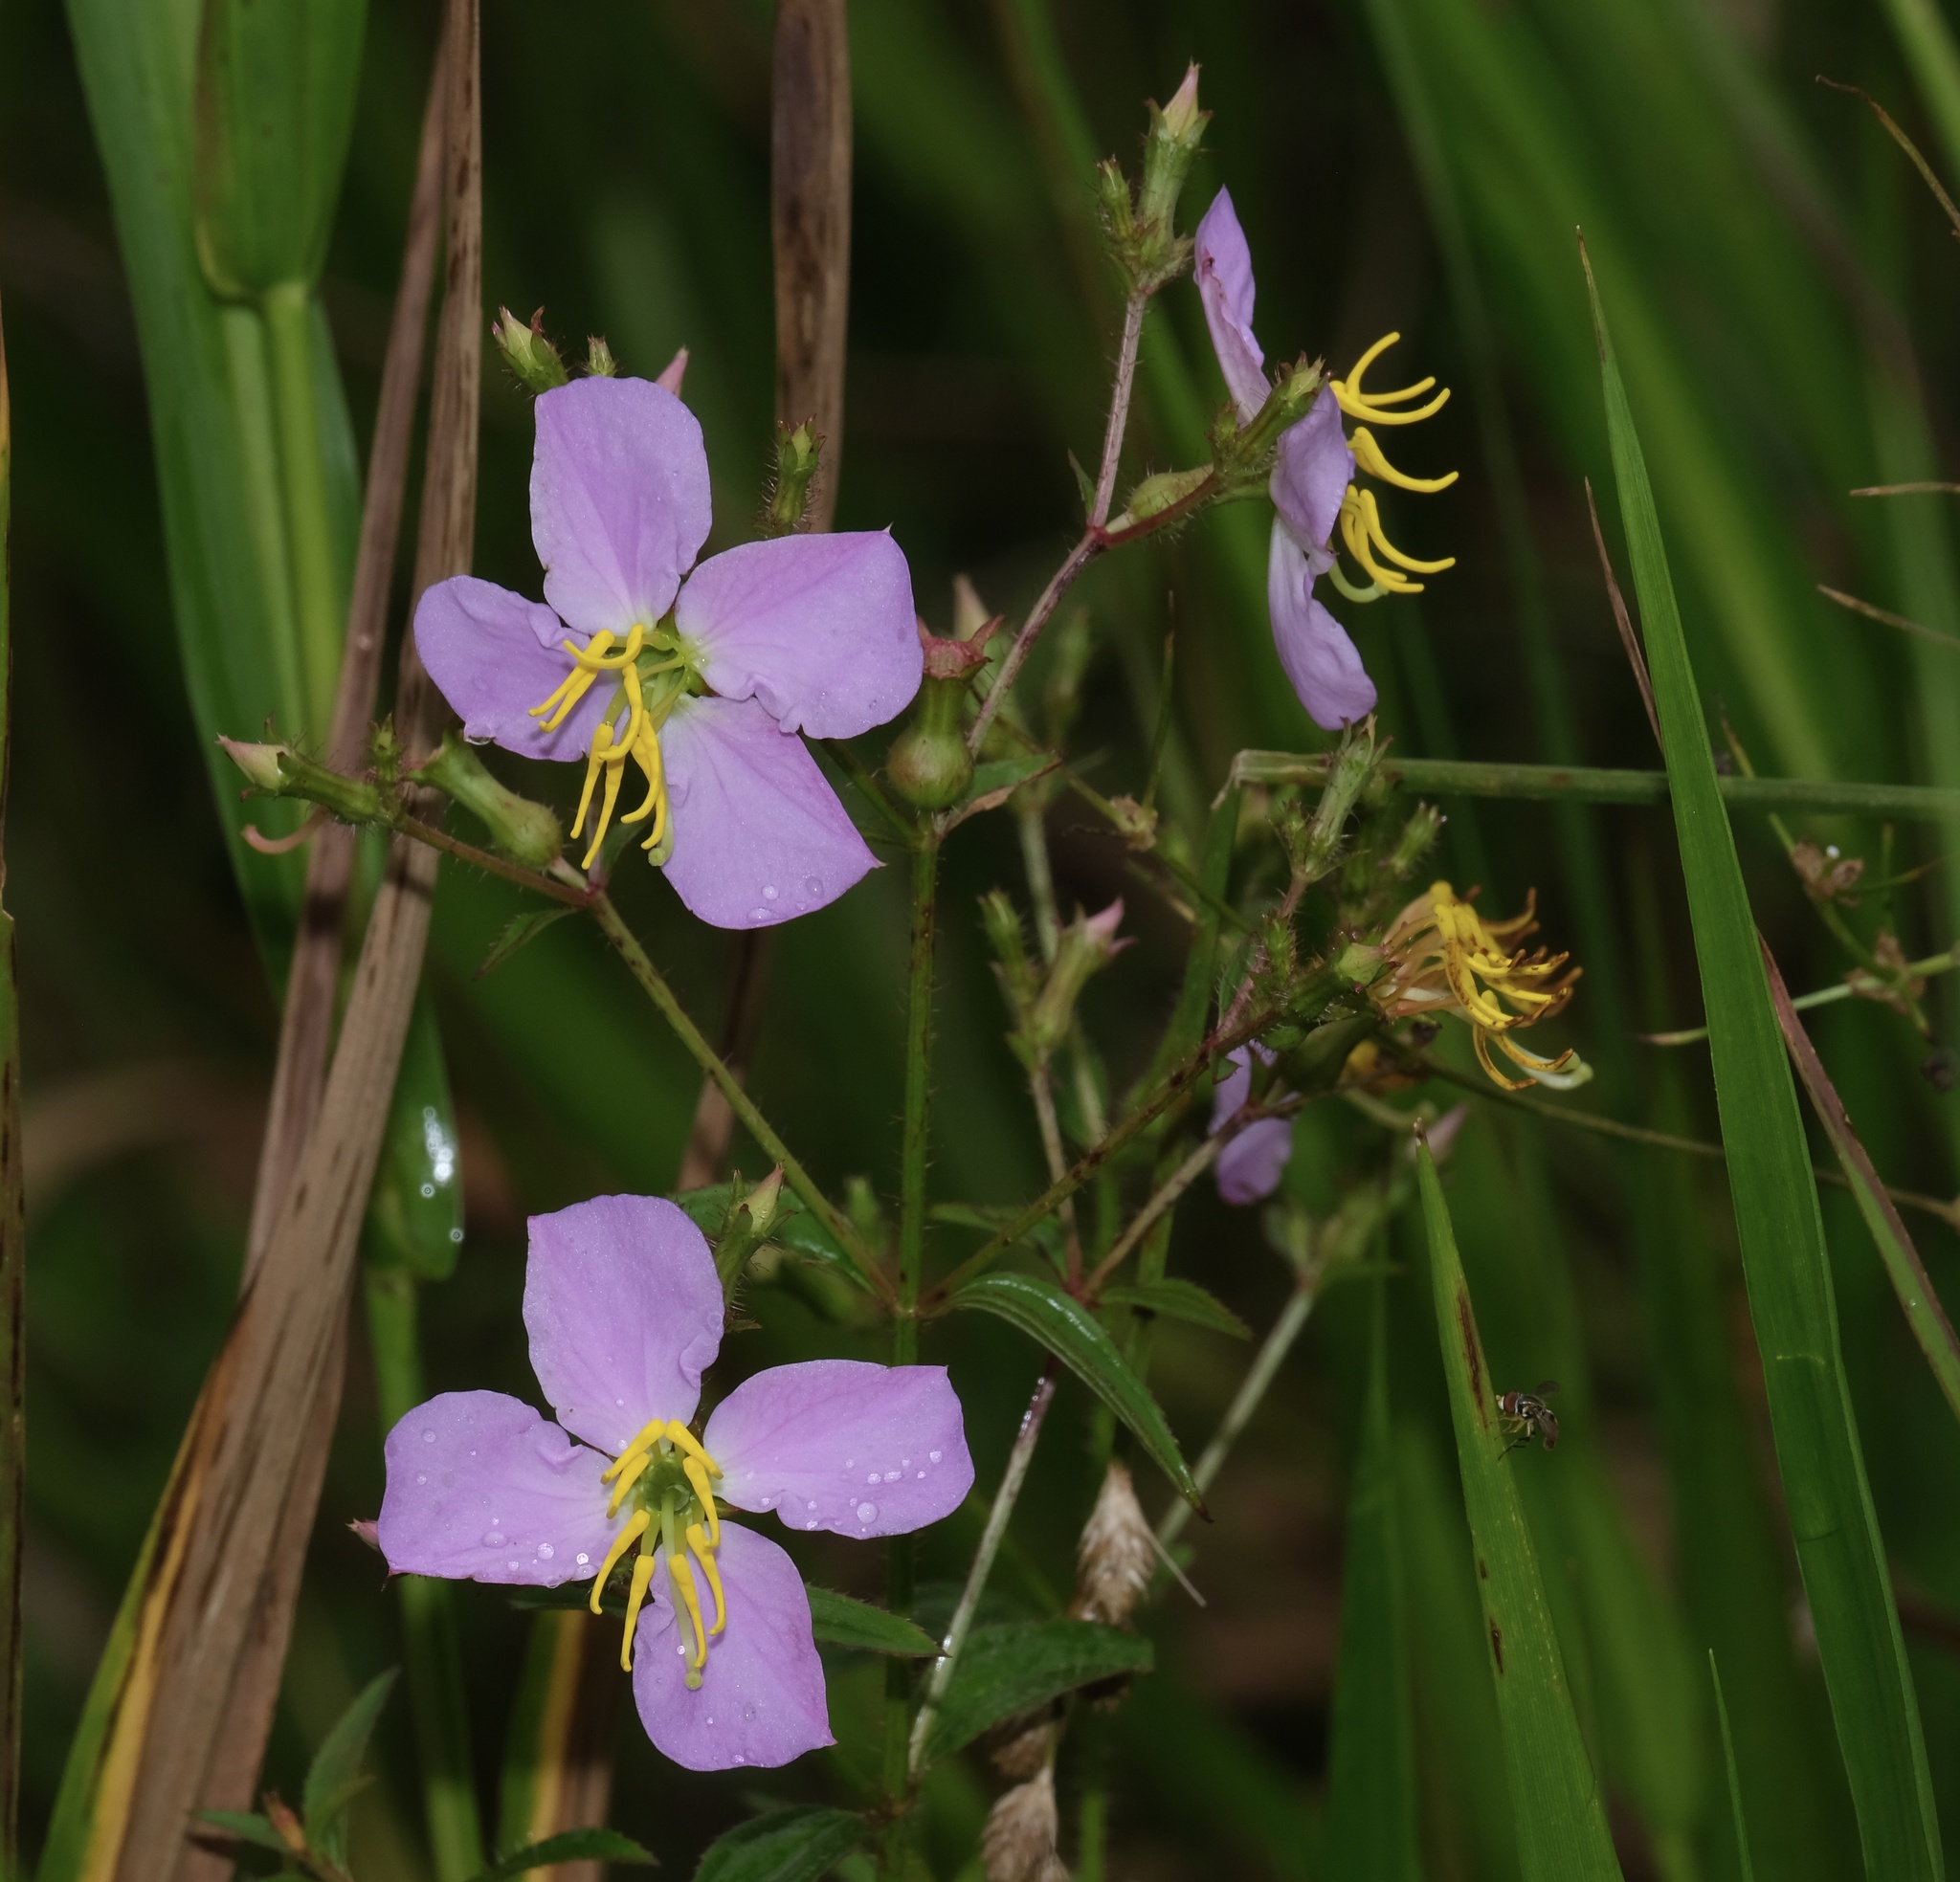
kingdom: Plantae
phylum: Tracheophyta
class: Magnoliopsida
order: Myrtales
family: Melastomataceae
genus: Rhexia
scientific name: Rhexia mariana
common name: Dull meadow-pitcher
